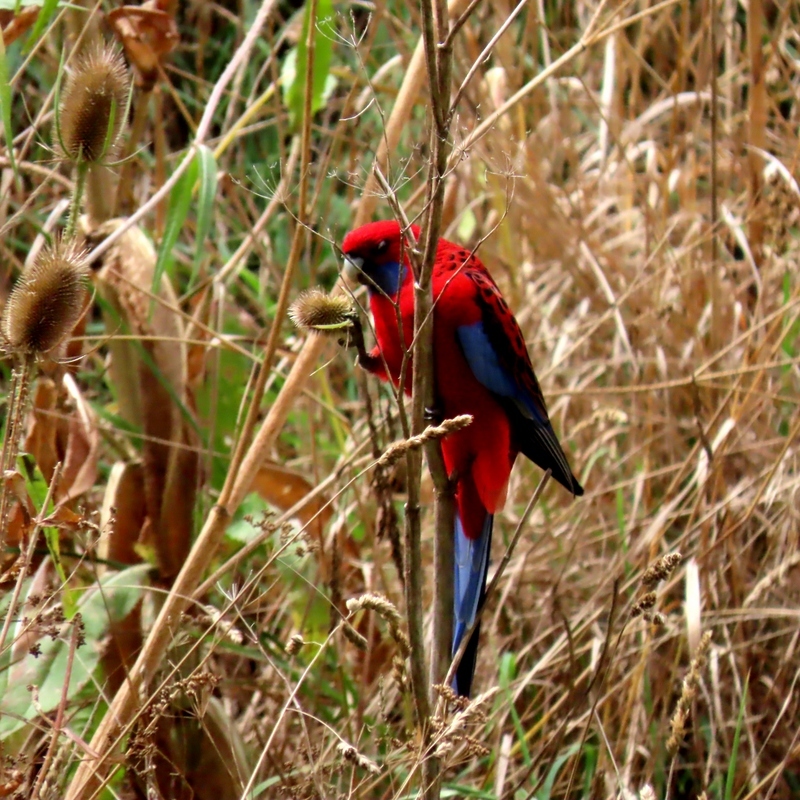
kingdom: Animalia
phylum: Chordata
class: Aves
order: Psittaciformes
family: Psittacidae
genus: Platycercus
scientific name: Platycercus elegans
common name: Crimson rosella
